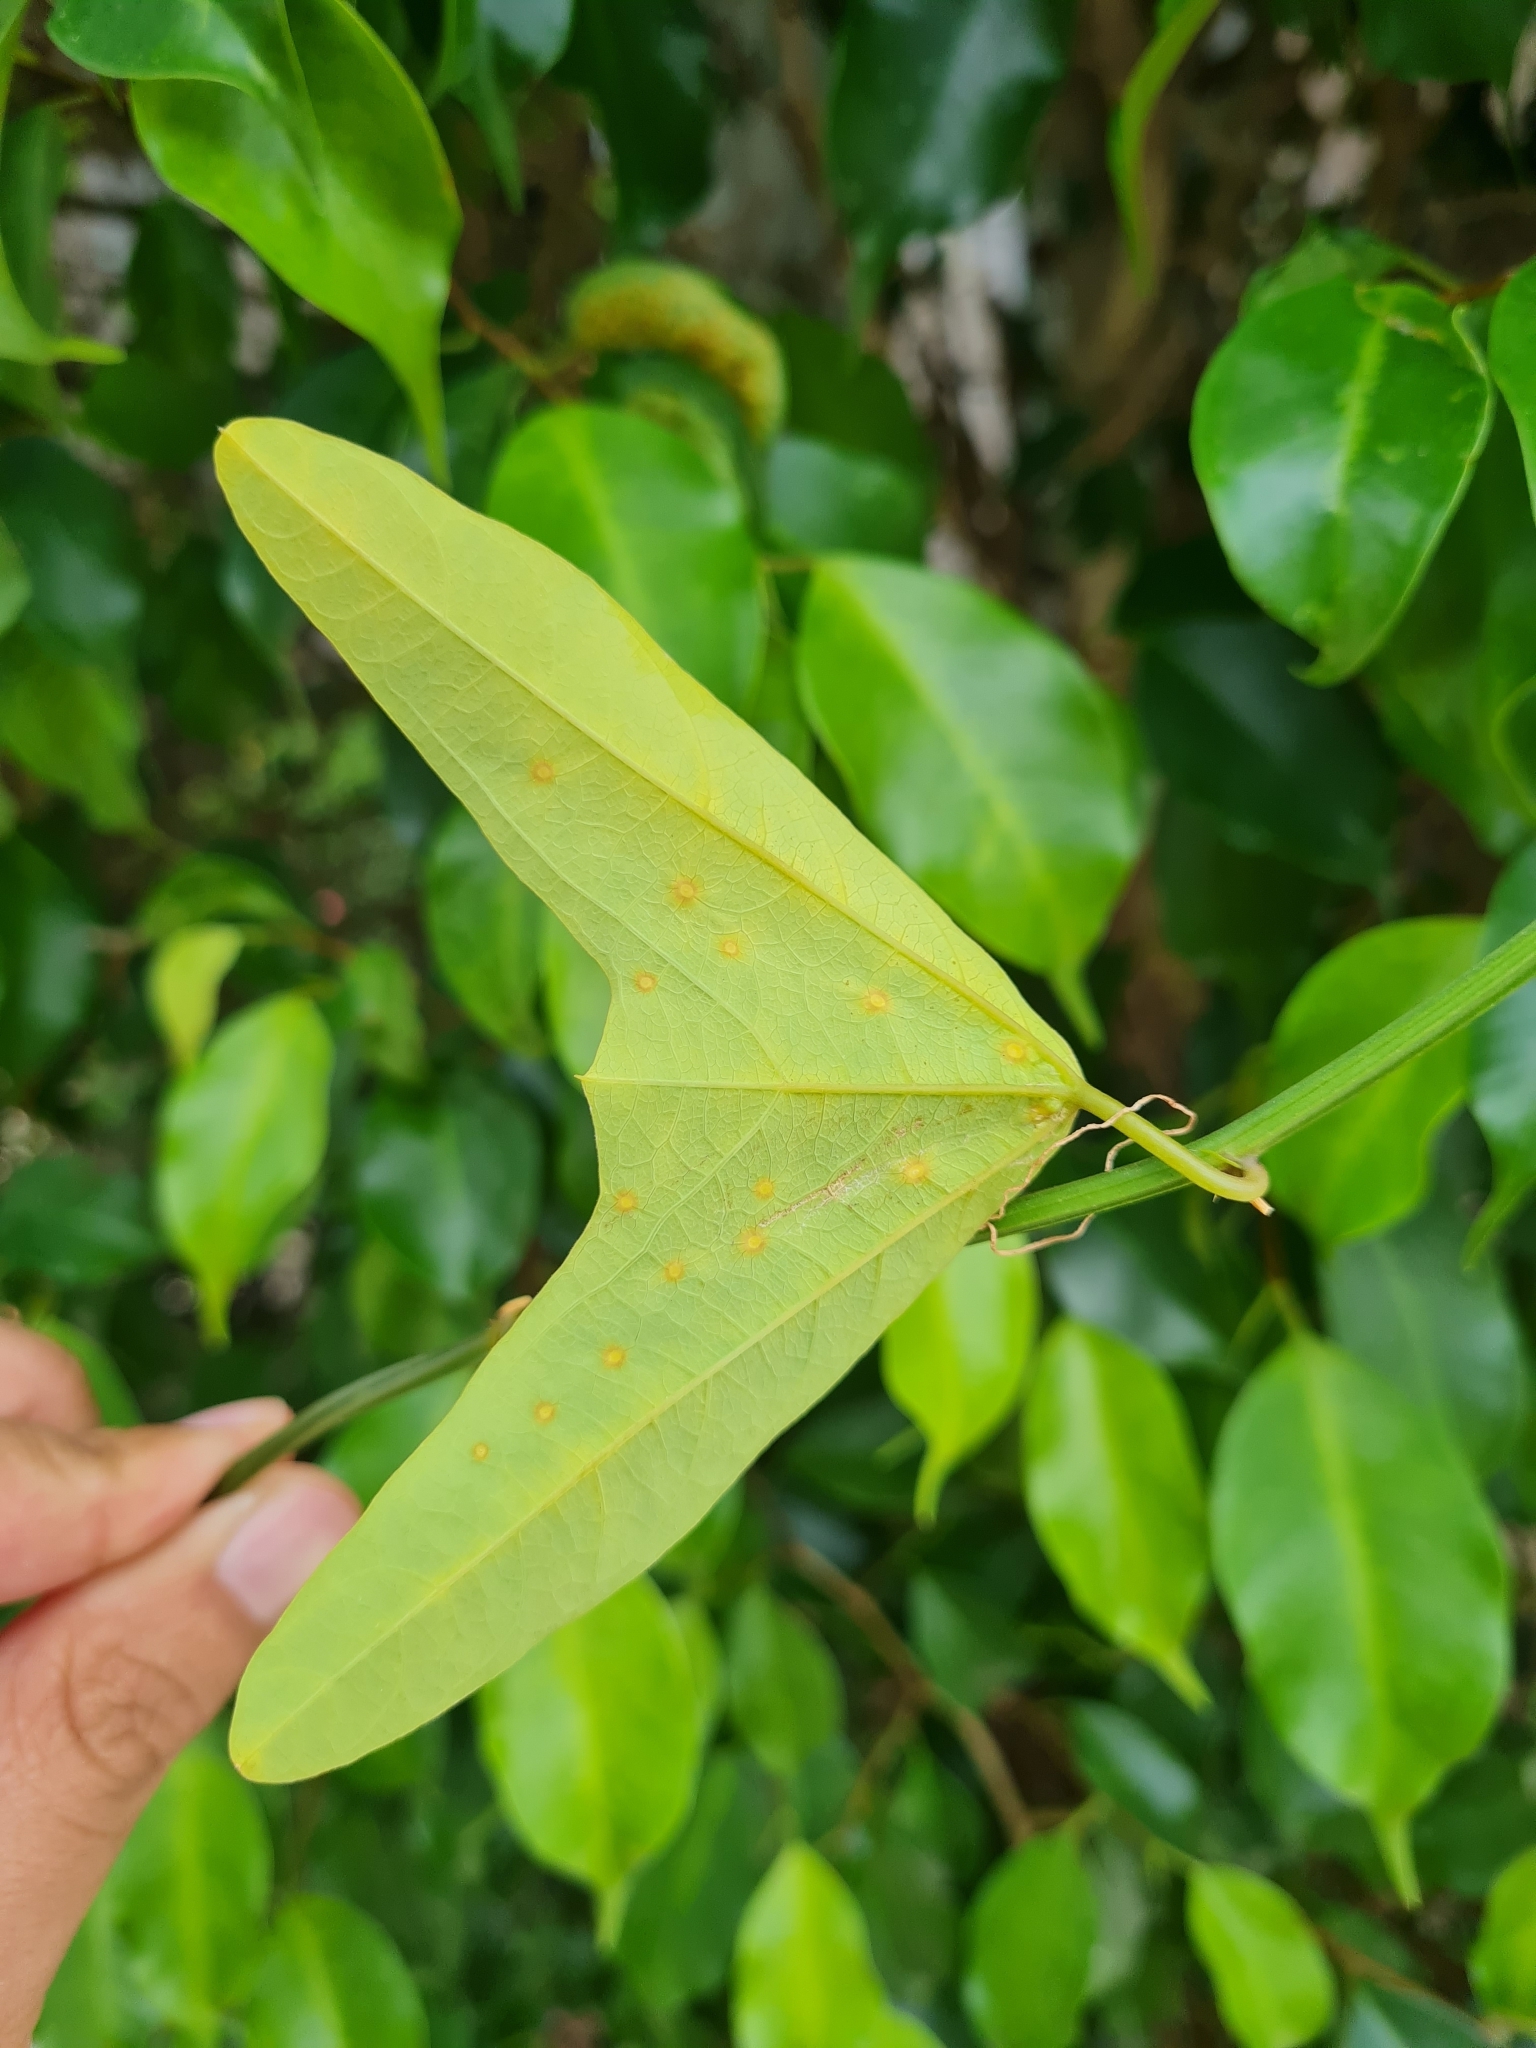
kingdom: Plantae
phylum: Tracheophyta
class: Magnoliopsida
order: Malpighiales
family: Passifloraceae
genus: Passiflora
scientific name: Passiflora biflora
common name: Twoflower passionflower
